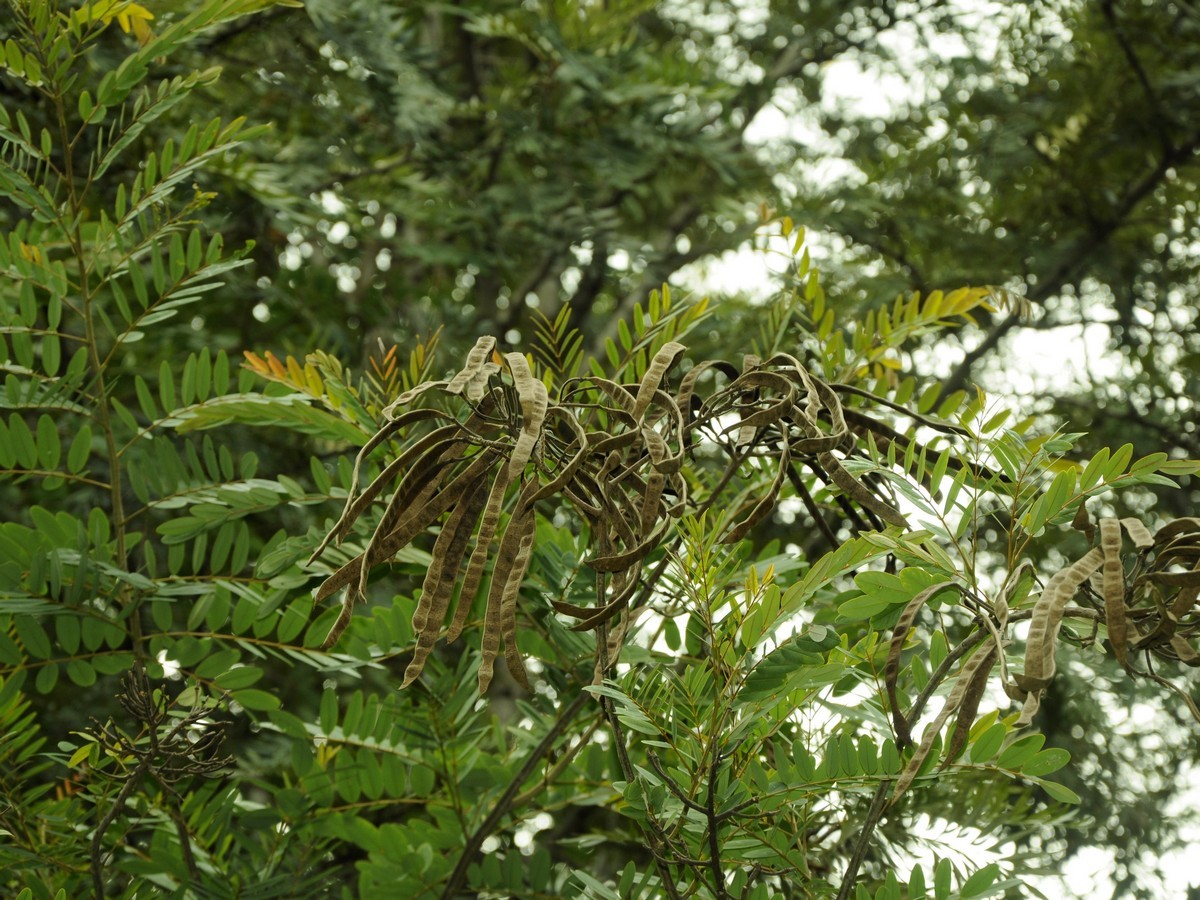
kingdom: Plantae
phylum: Tracheophyta
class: Magnoliopsida
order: Fabales
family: Fabaceae
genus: Senna
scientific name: Senna siamea
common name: Siamese cassia
